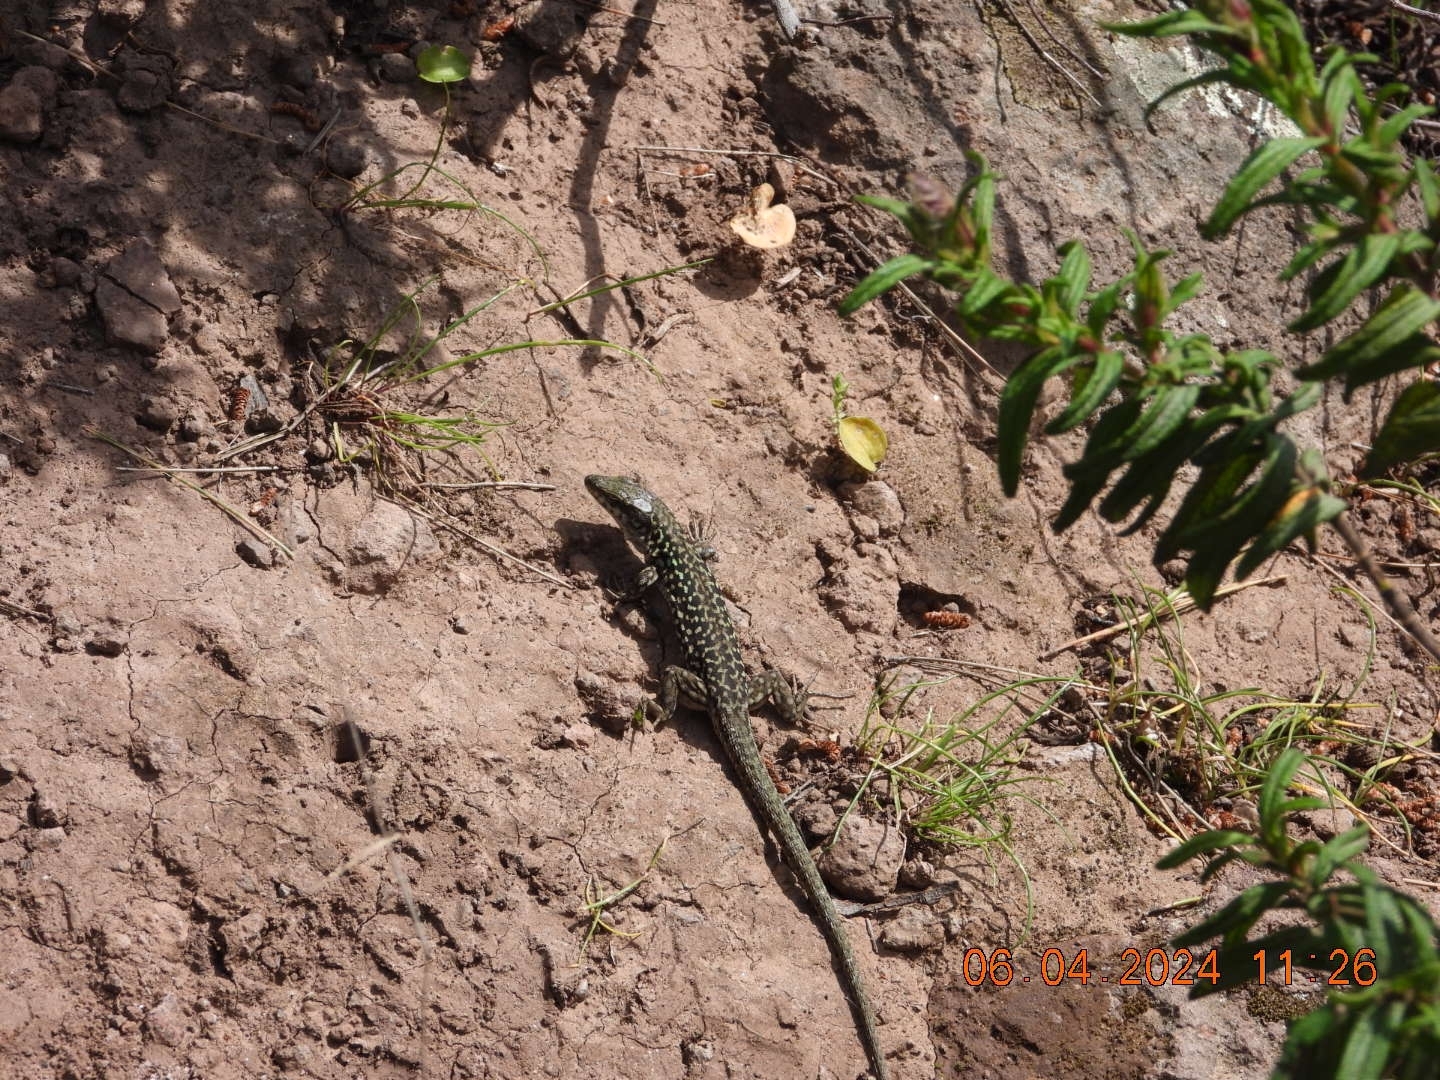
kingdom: Animalia
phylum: Chordata
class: Squamata
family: Lacertidae
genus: Podarcis
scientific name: Podarcis siculus
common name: Italian wall lizard
